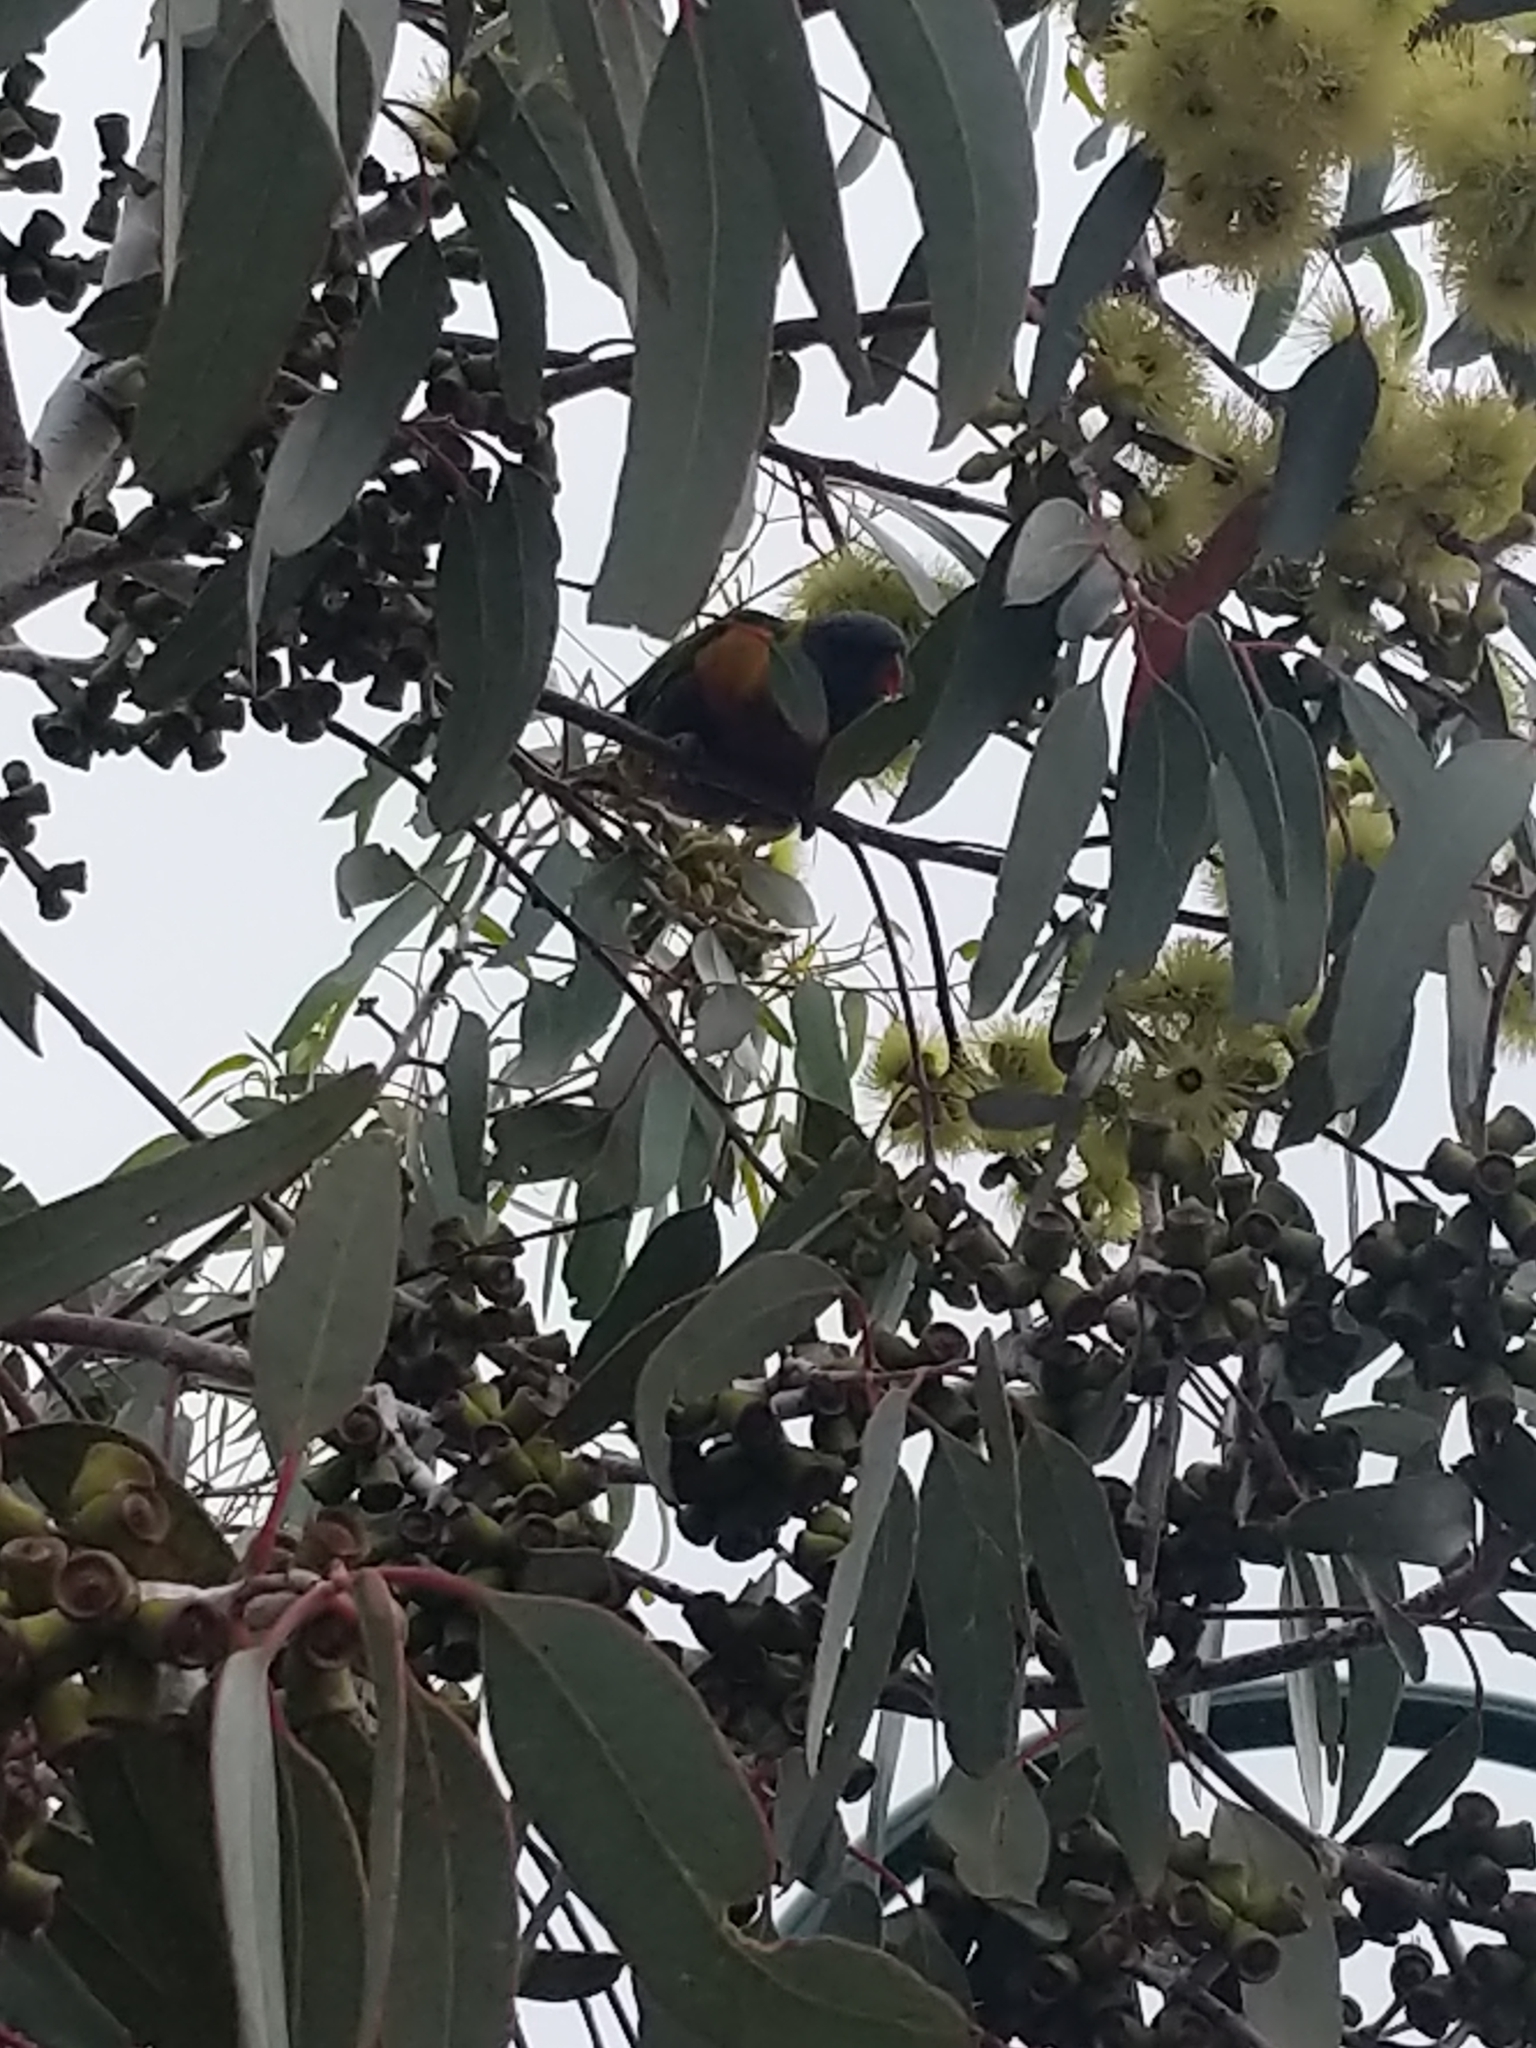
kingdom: Animalia
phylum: Chordata
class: Aves
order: Psittaciformes
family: Psittacidae
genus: Trichoglossus
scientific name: Trichoglossus haematodus
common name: Coconut lorikeet
